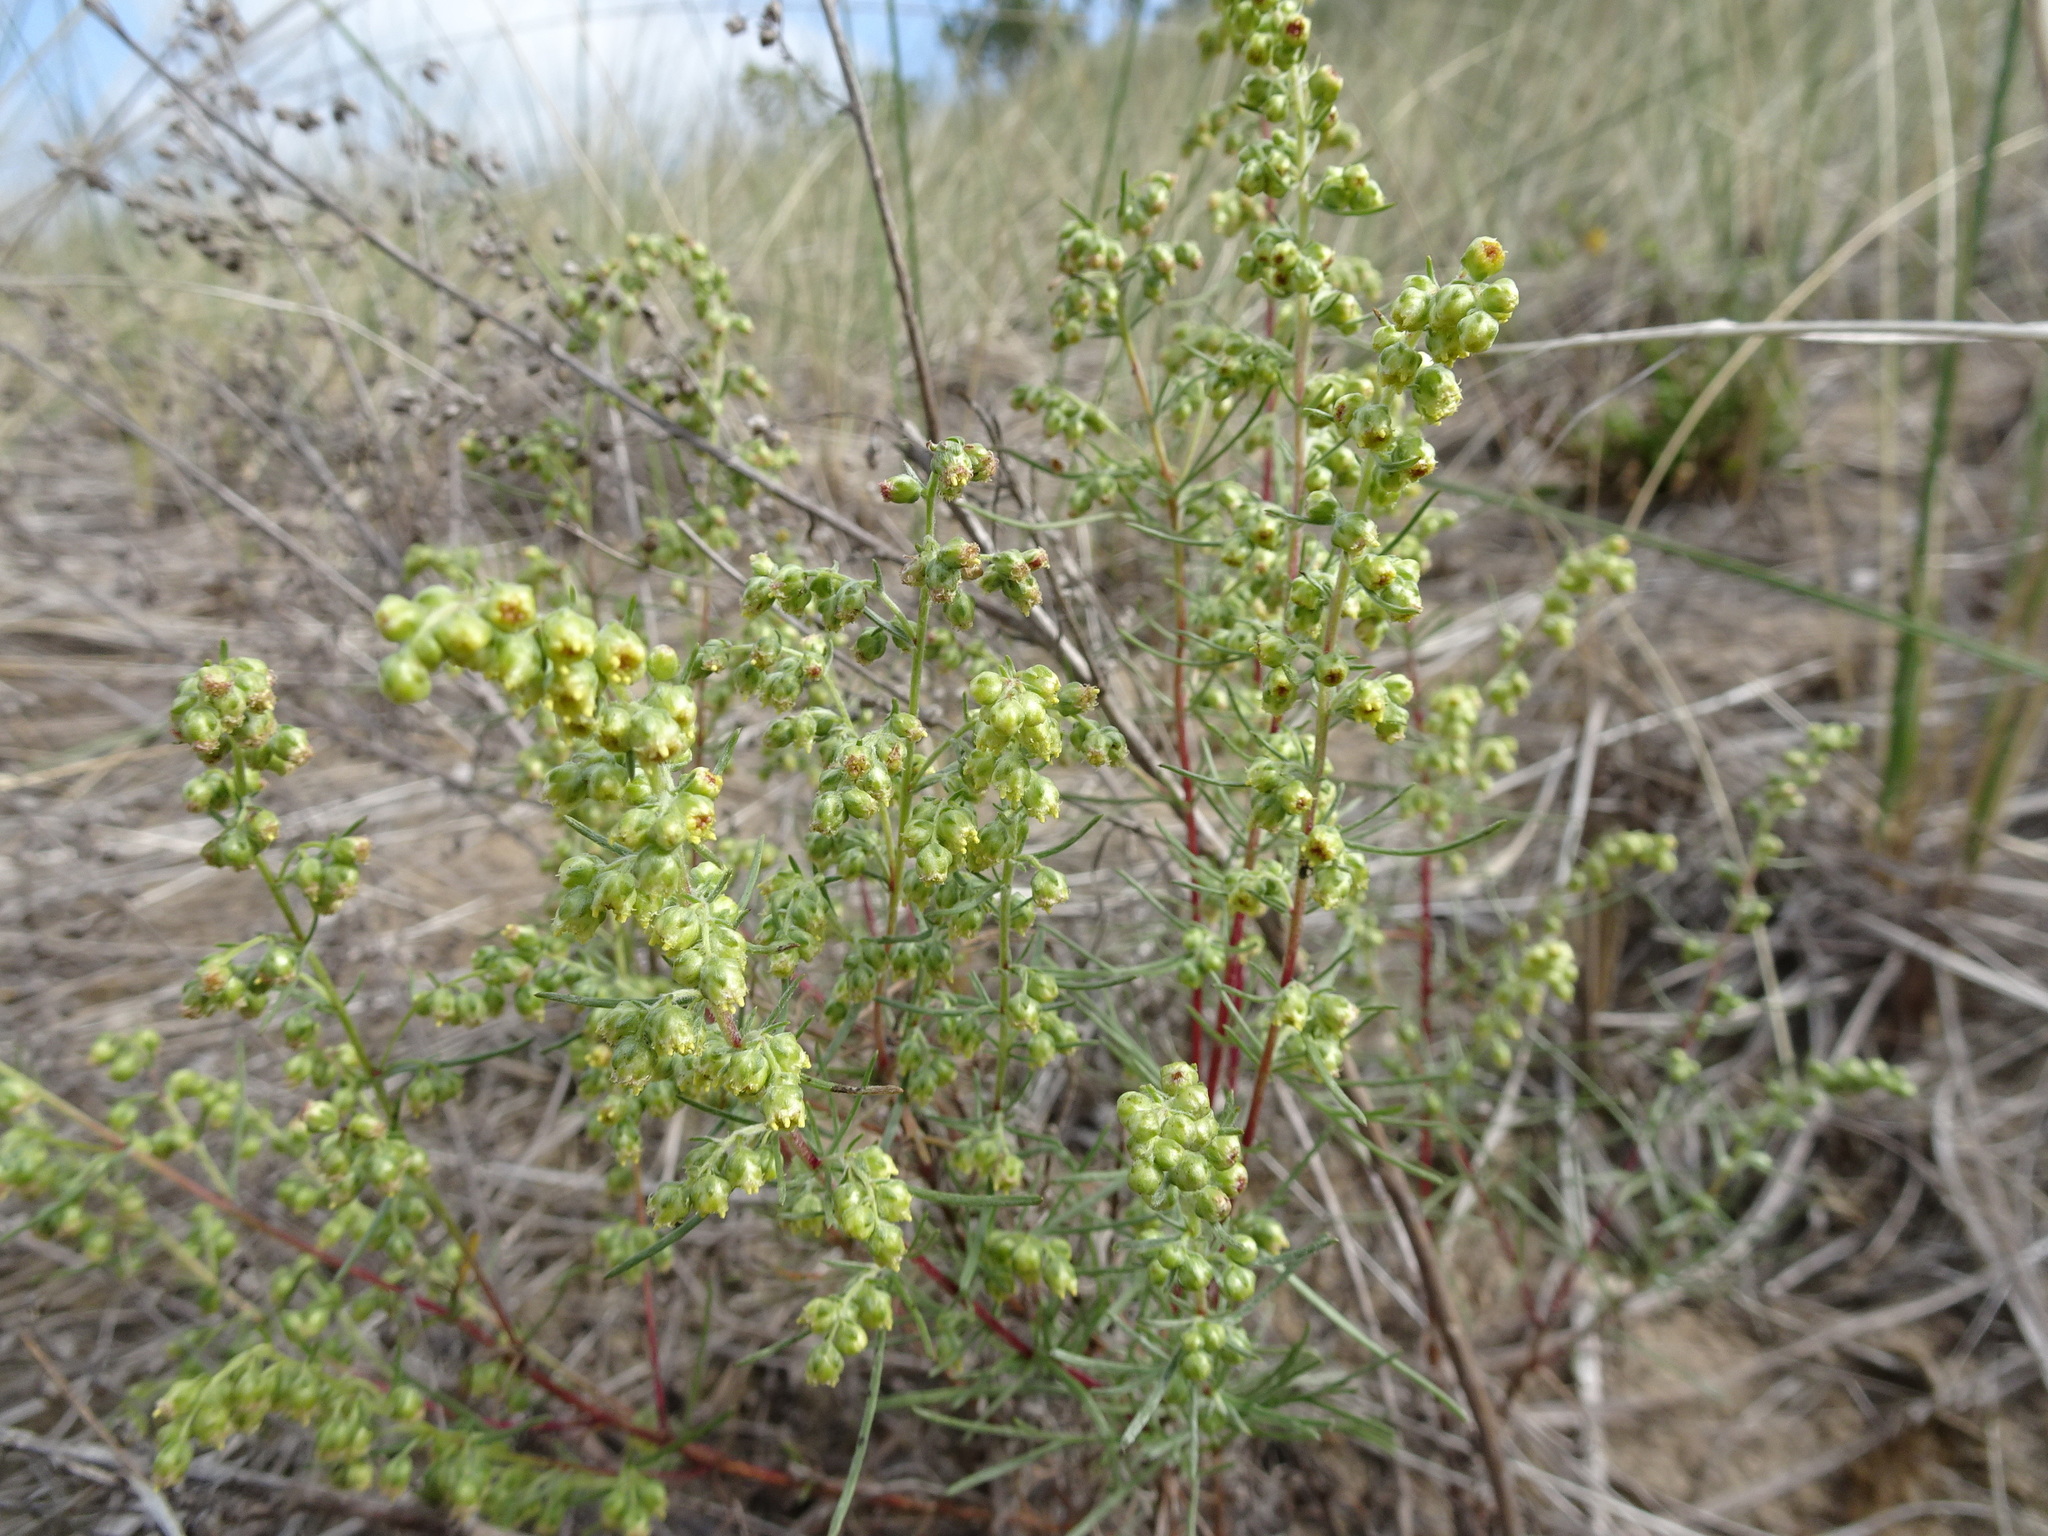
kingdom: Plantae
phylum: Tracheophyta
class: Magnoliopsida
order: Asterales
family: Asteraceae
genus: Artemisia
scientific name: Artemisia campestris
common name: Field wormwood
